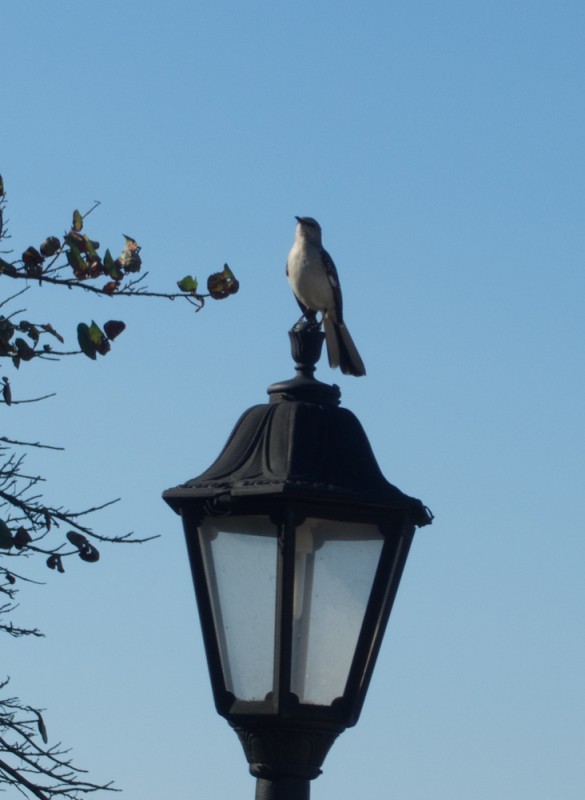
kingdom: Animalia
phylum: Chordata
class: Aves
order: Passeriformes
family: Mimidae
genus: Mimus
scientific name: Mimus polyglottos
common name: Northern mockingbird
